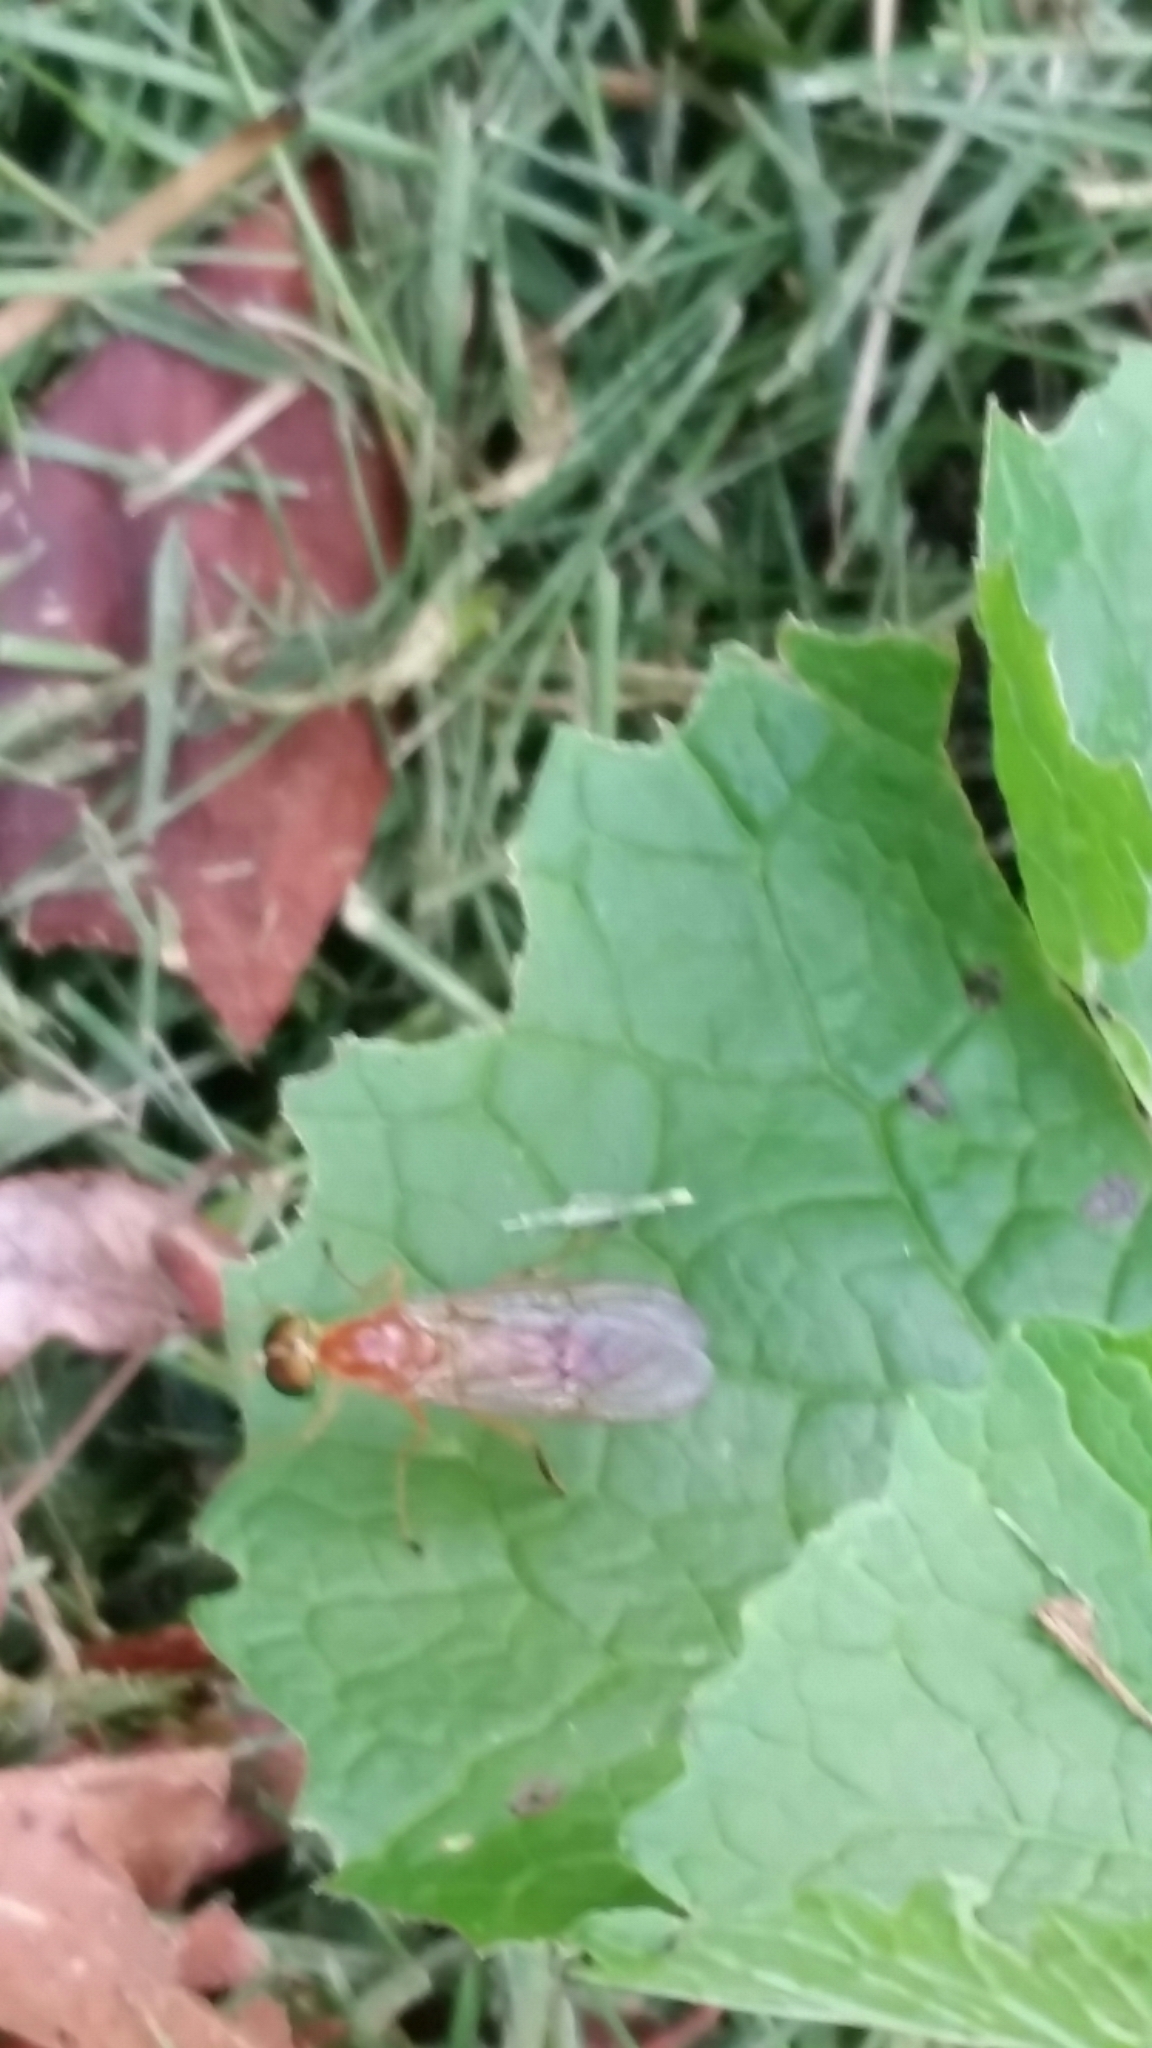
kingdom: Animalia
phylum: Arthropoda
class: Insecta
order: Diptera
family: Stratiomyidae
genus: Ptecticus
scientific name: Ptecticus trivittatus
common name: Compost fly
